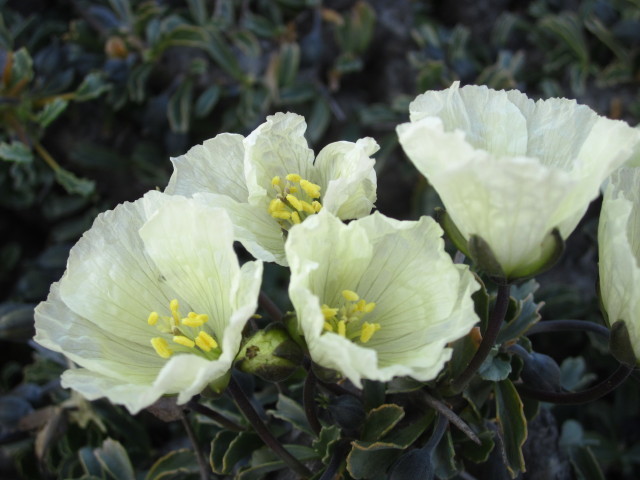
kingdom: Plantae
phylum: Tracheophyta
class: Magnoliopsida
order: Geraniales
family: Geraniaceae
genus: Monsonia
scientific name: Monsonia crassicaulis
